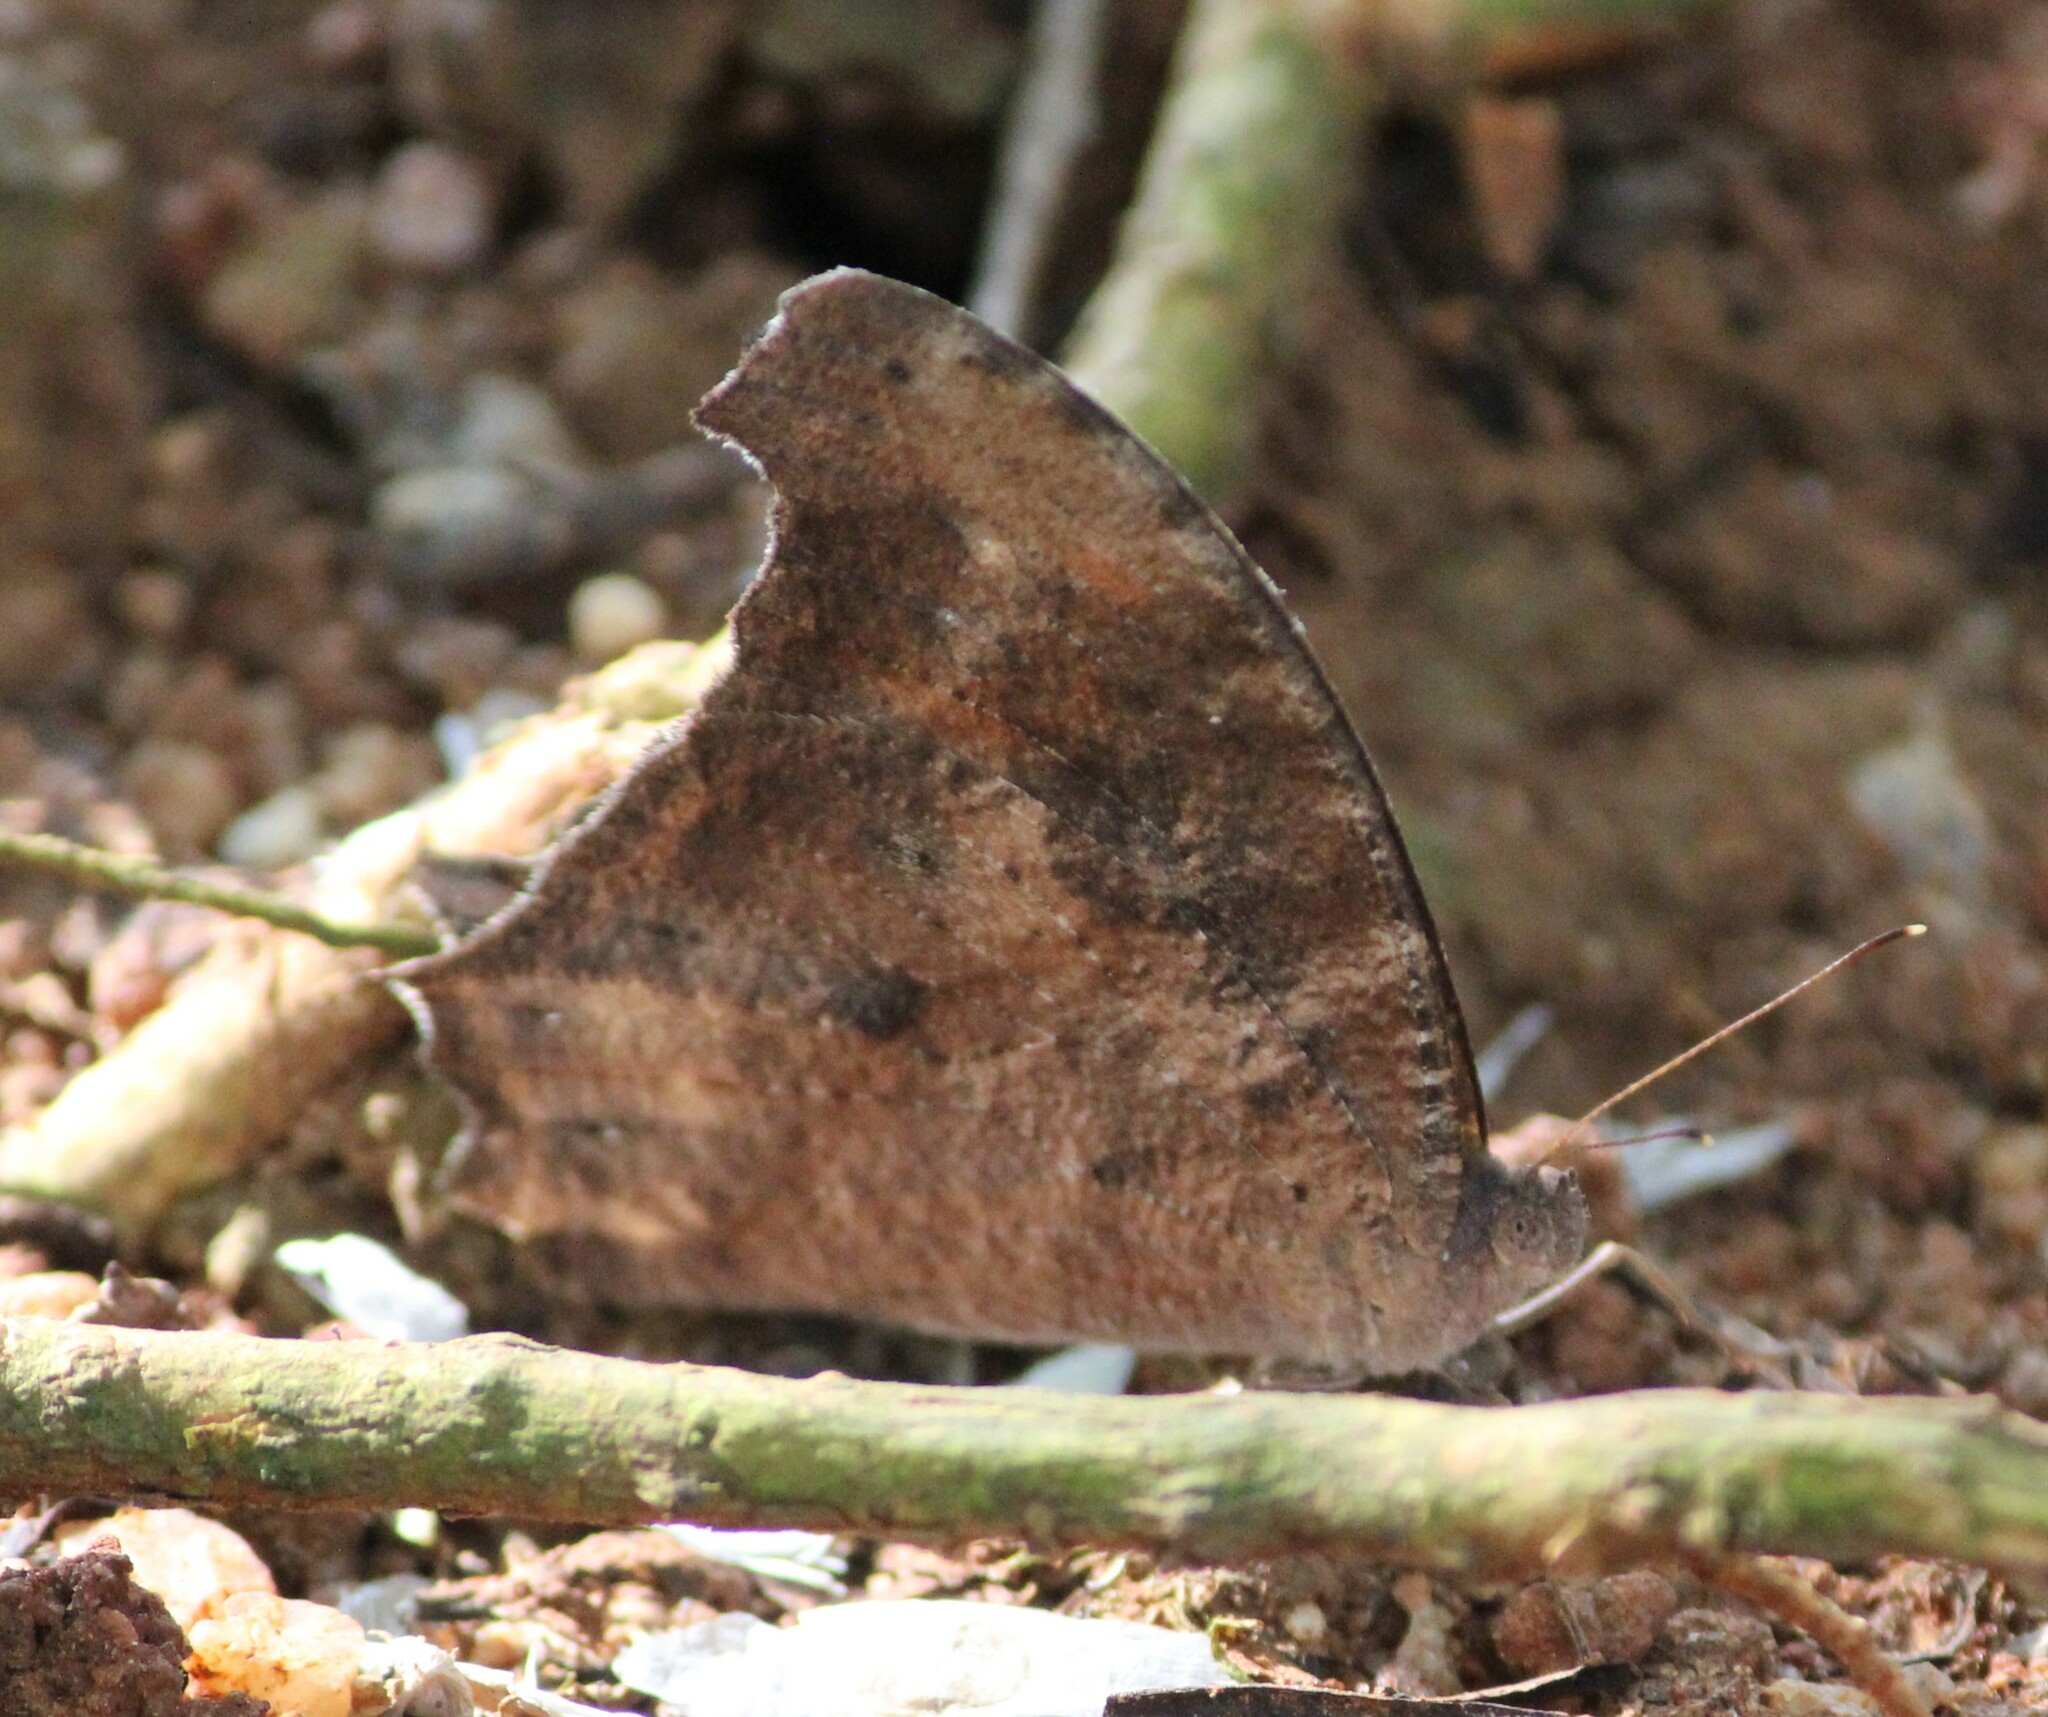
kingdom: Animalia
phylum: Arthropoda
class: Insecta
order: Lepidoptera
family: Nymphalidae
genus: Melanitis
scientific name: Melanitis leda
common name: Twilight brown
